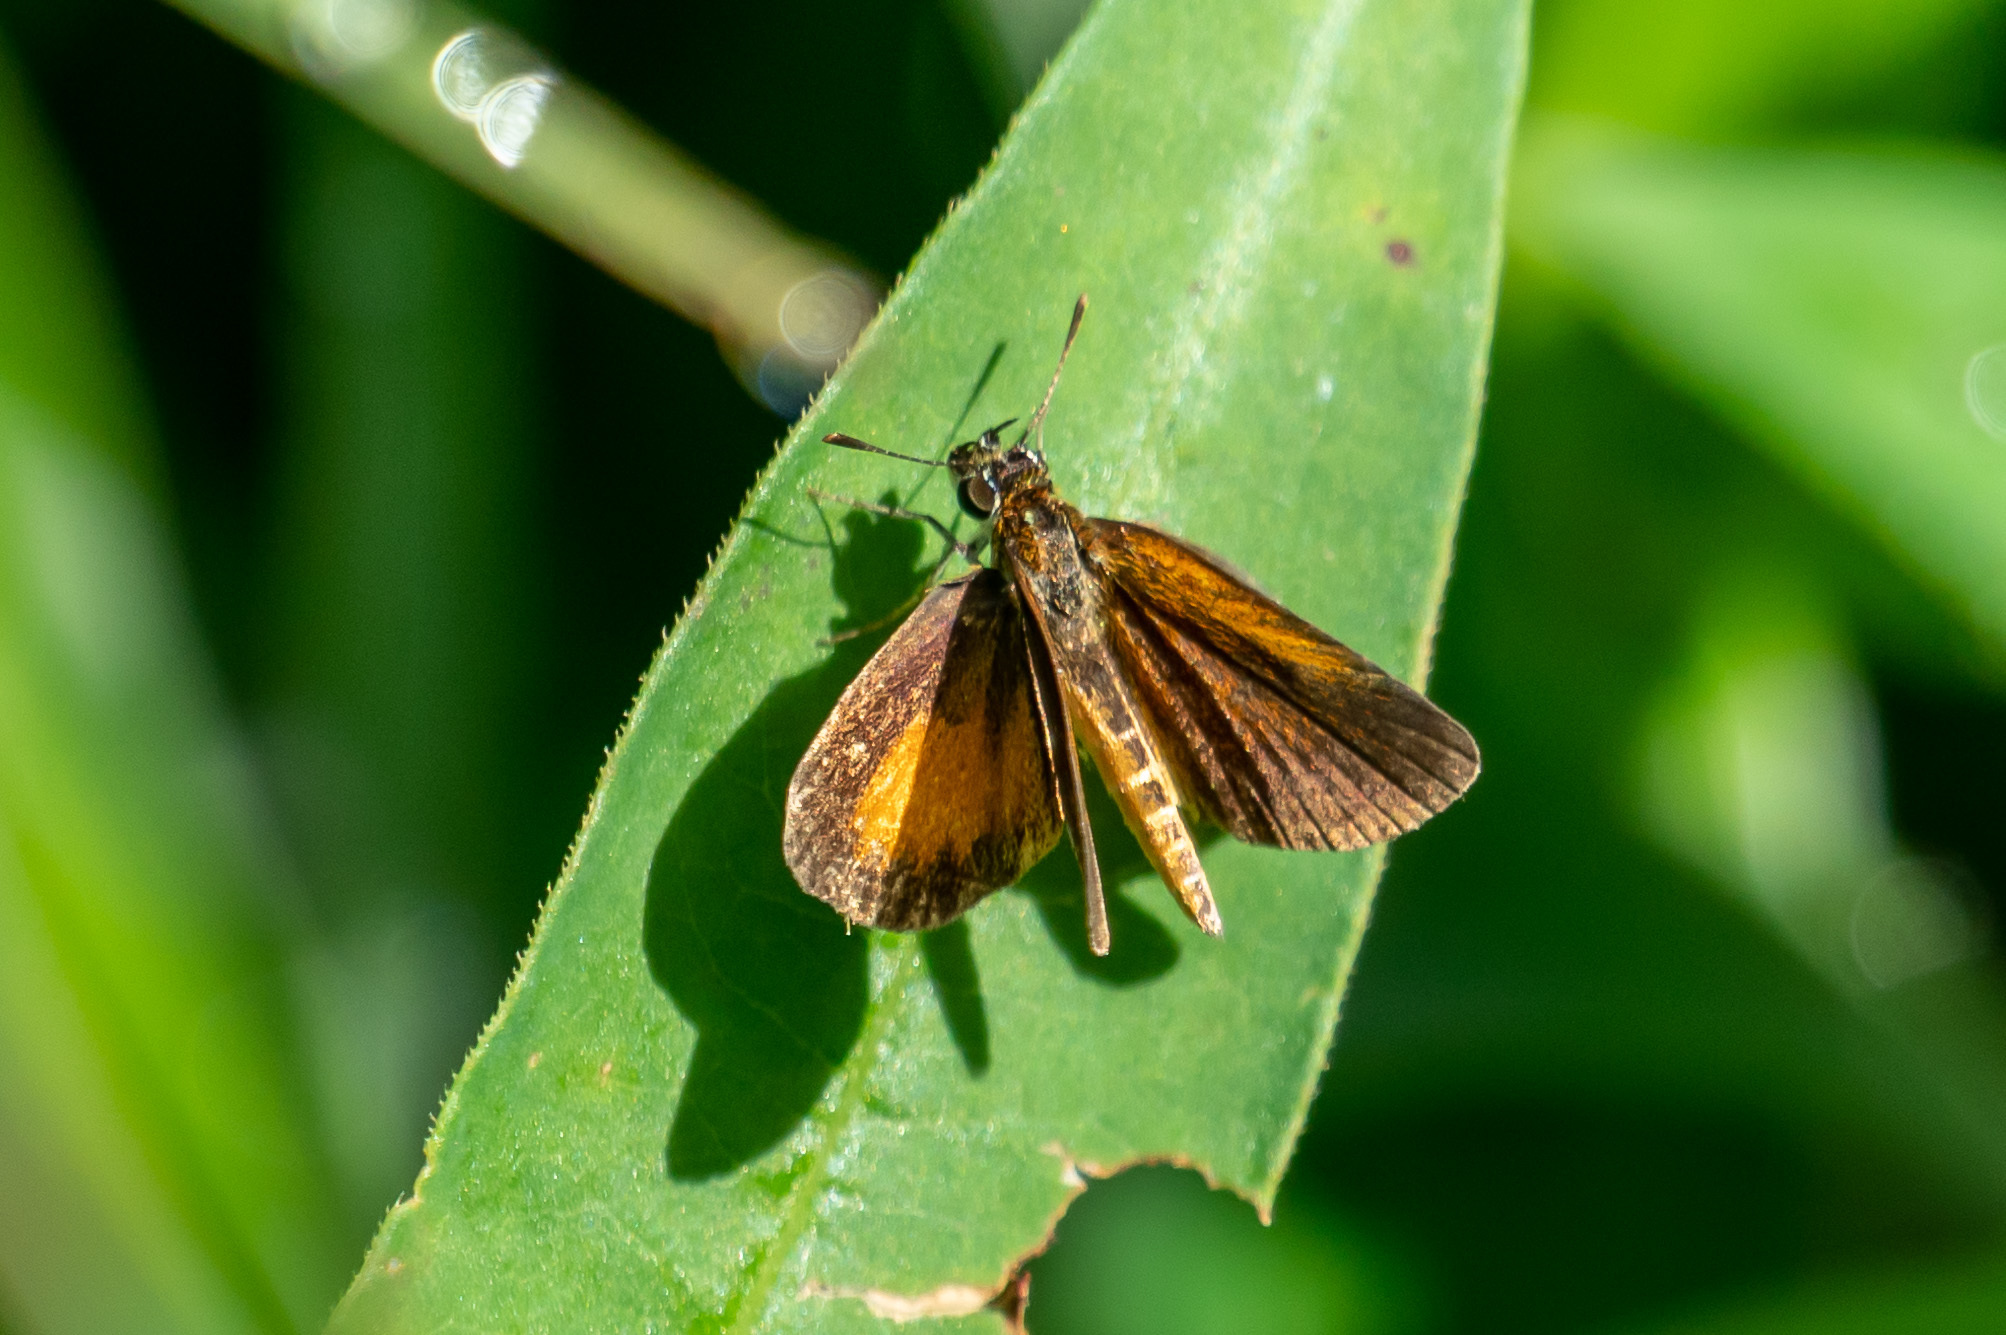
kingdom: Animalia
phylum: Arthropoda
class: Insecta
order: Lepidoptera
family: Hesperiidae
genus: Ancyloxypha
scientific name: Ancyloxypha numitor
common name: Least skipper
